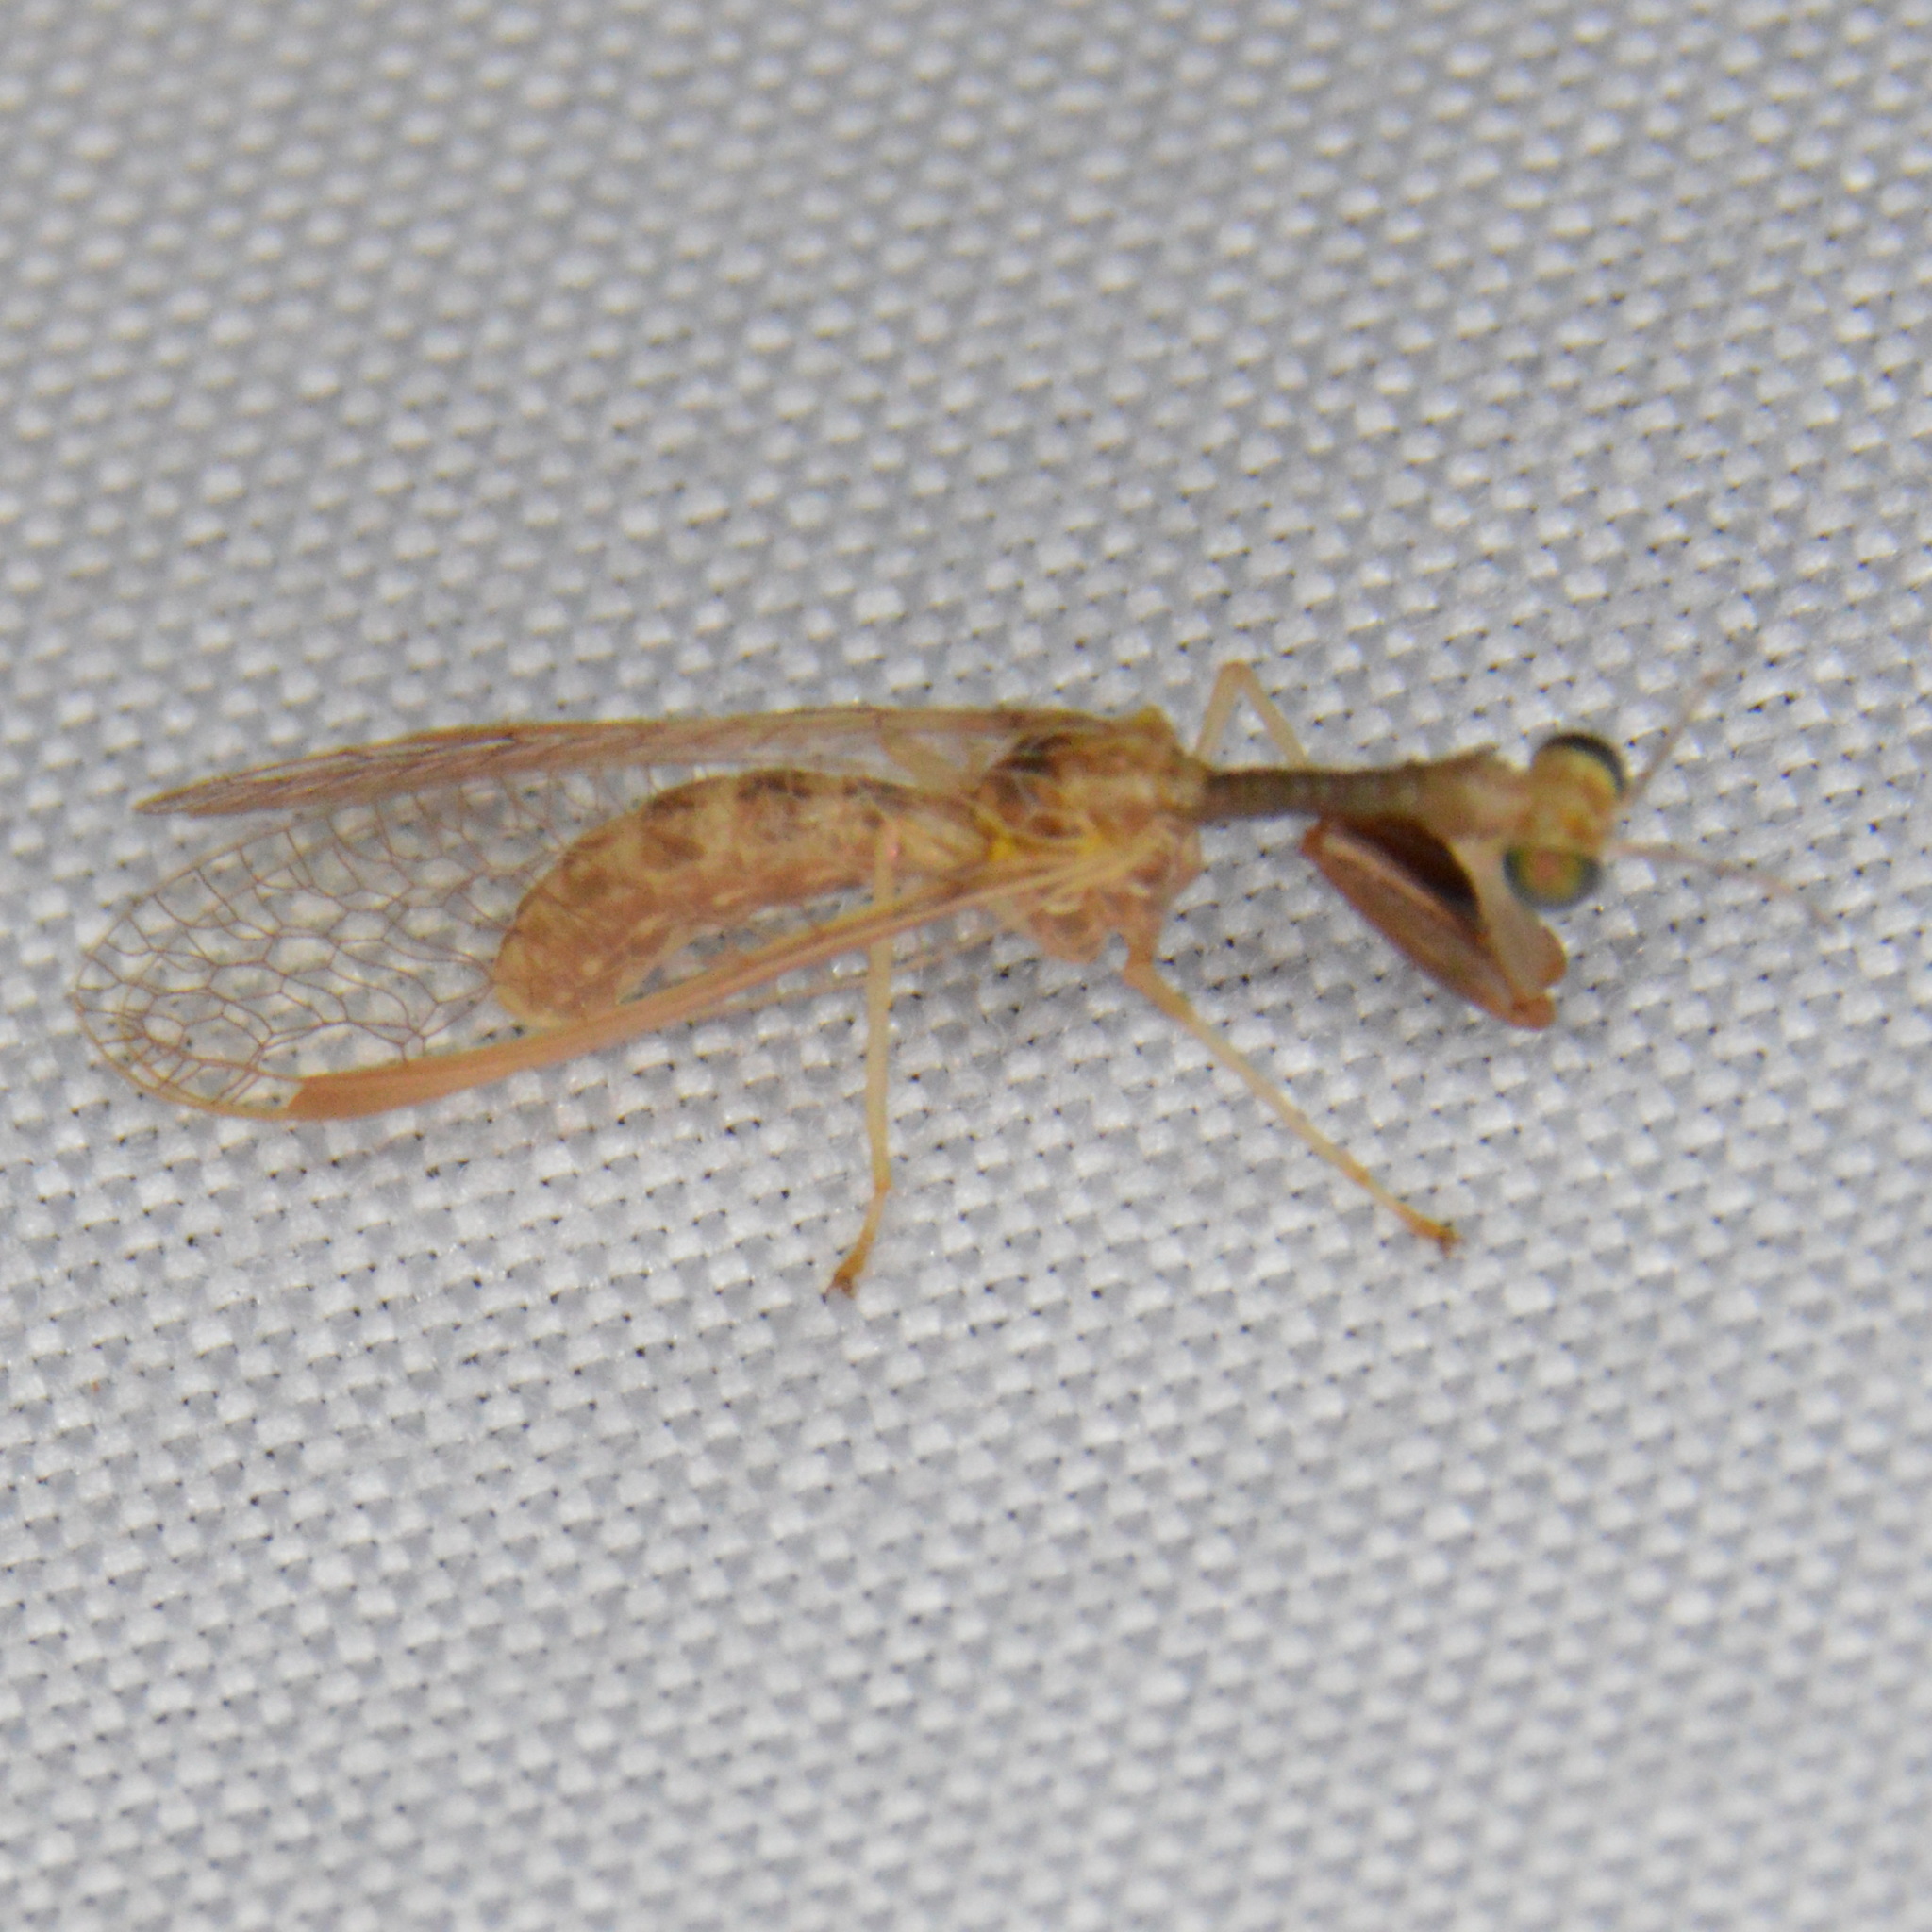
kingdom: Animalia
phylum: Arthropoda
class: Insecta
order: Neuroptera
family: Mantispidae
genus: Dicromantispa
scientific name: Dicromantispa sayi
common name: Say's mantidfly
